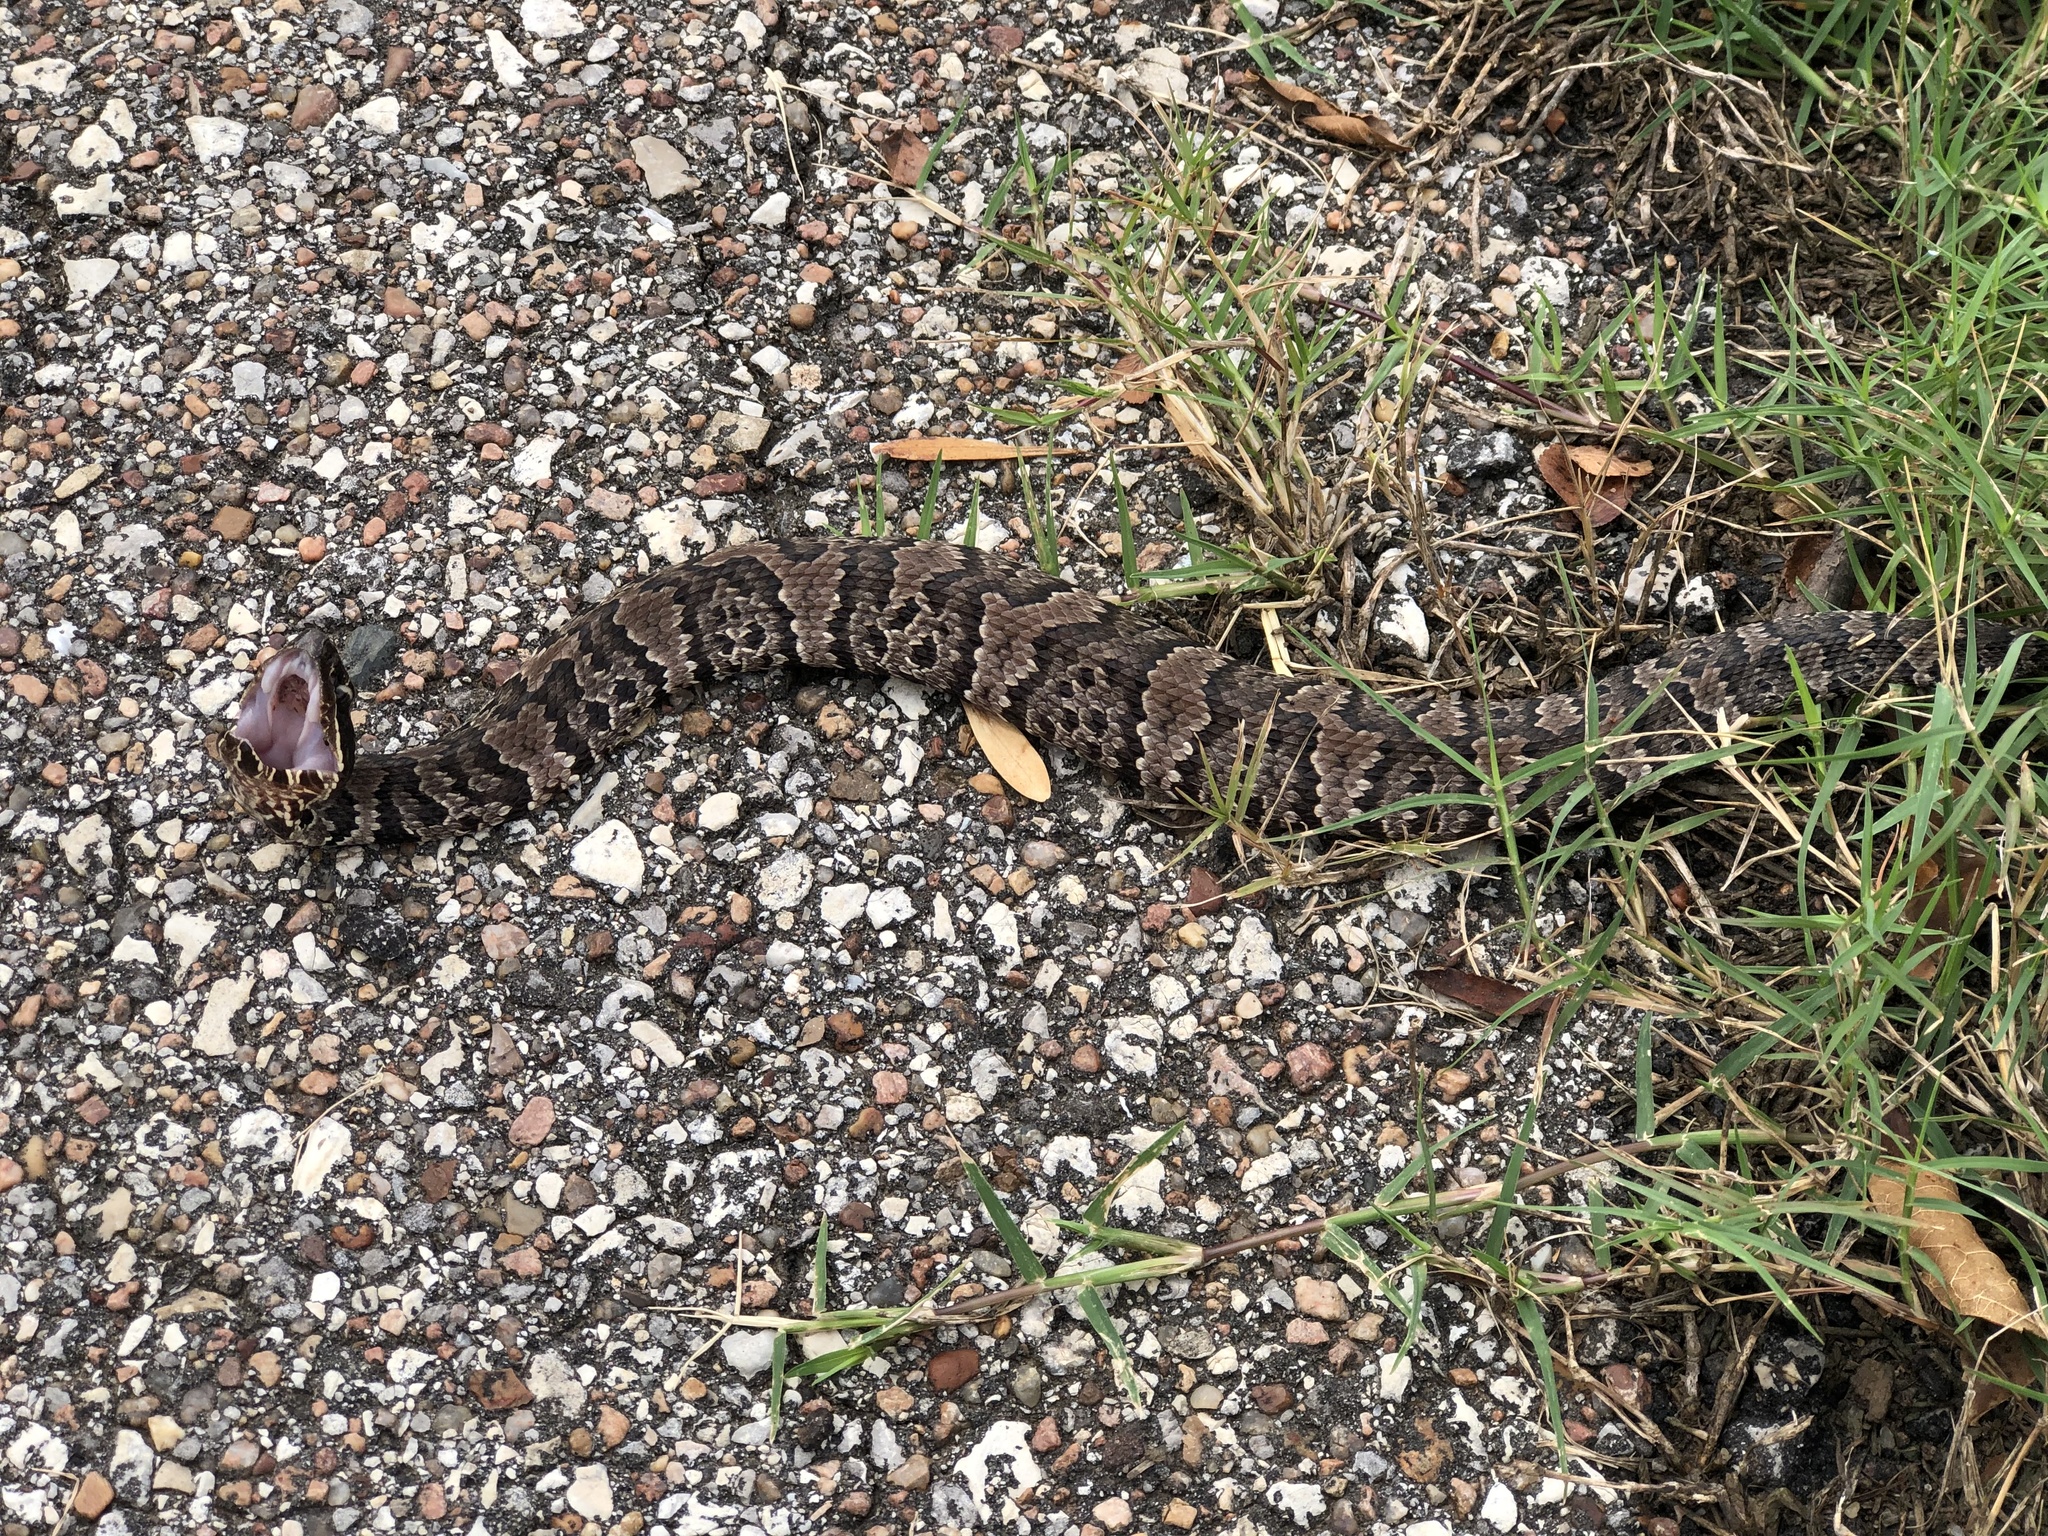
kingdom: Animalia
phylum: Chordata
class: Squamata
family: Viperidae
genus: Agkistrodon
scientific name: Agkistrodon piscivorus
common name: Cottonmouth
